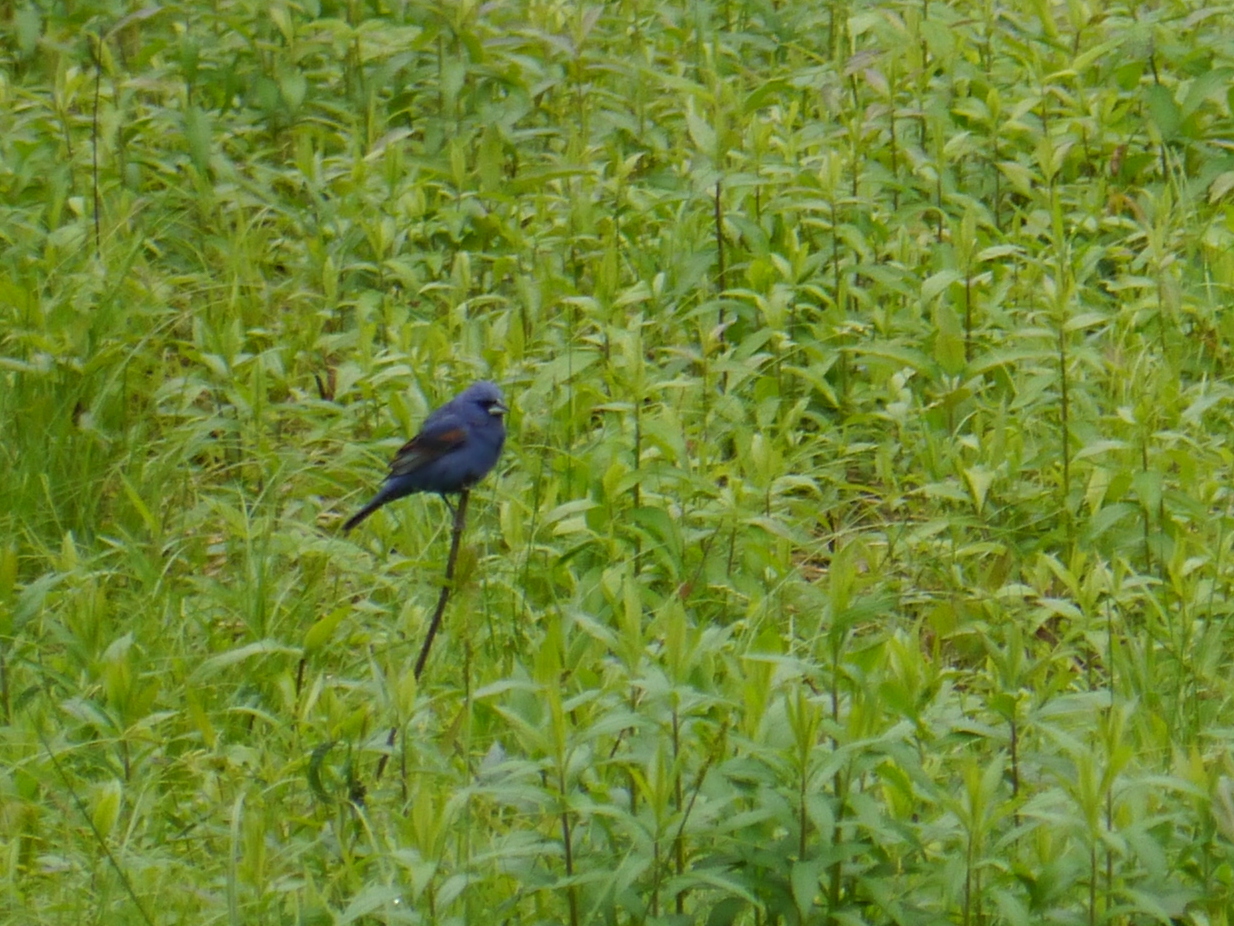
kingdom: Animalia
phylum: Chordata
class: Aves
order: Passeriformes
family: Cardinalidae
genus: Passerina
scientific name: Passerina caerulea
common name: Blue grosbeak
